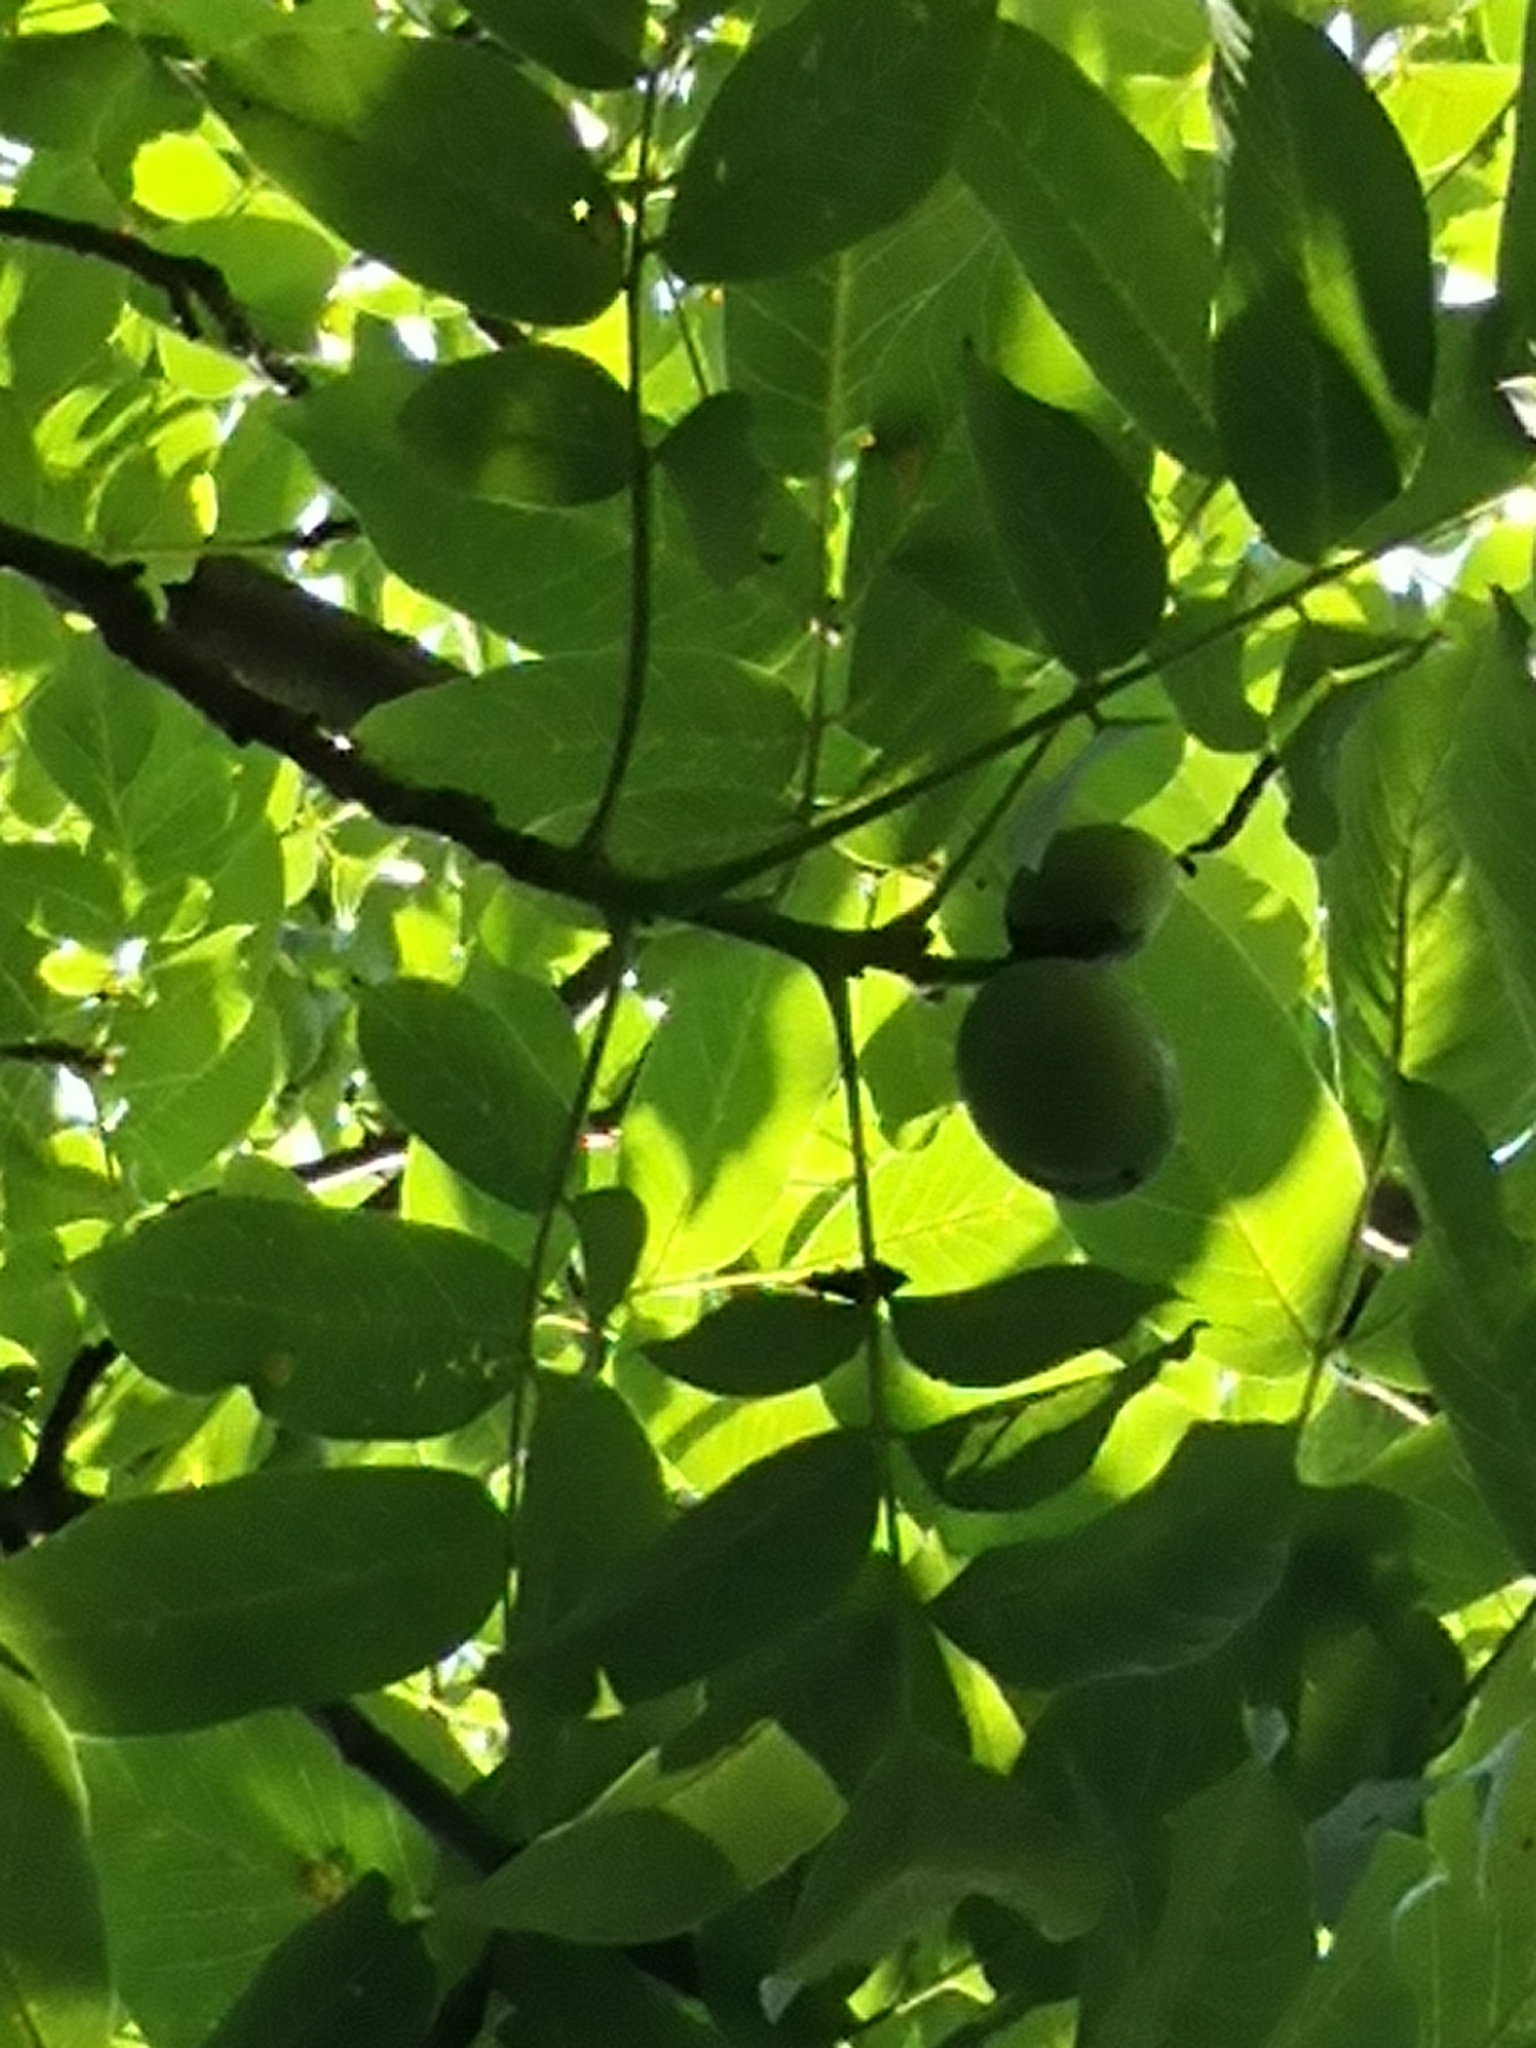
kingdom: Plantae
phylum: Tracheophyta
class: Magnoliopsida
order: Fagales
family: Juglandaceae
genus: Juglans
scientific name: Juglans regia
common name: Walnut
